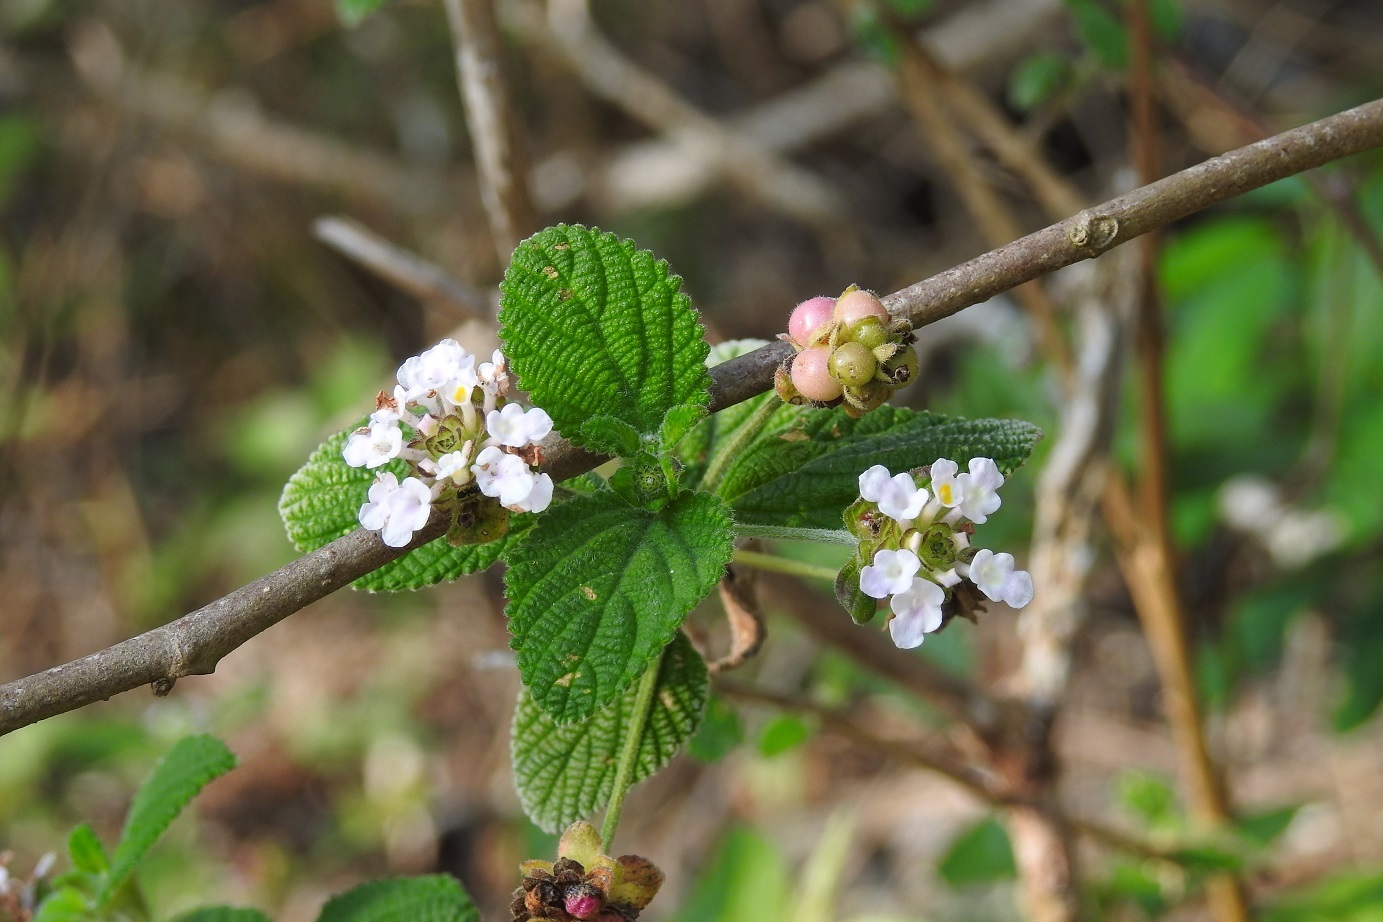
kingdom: Plantae
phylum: Tracheophyta
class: Magnoliopsida
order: Lamiales
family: Verbenaceae
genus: Lantana
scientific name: Lantana involucrata
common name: Black sage
